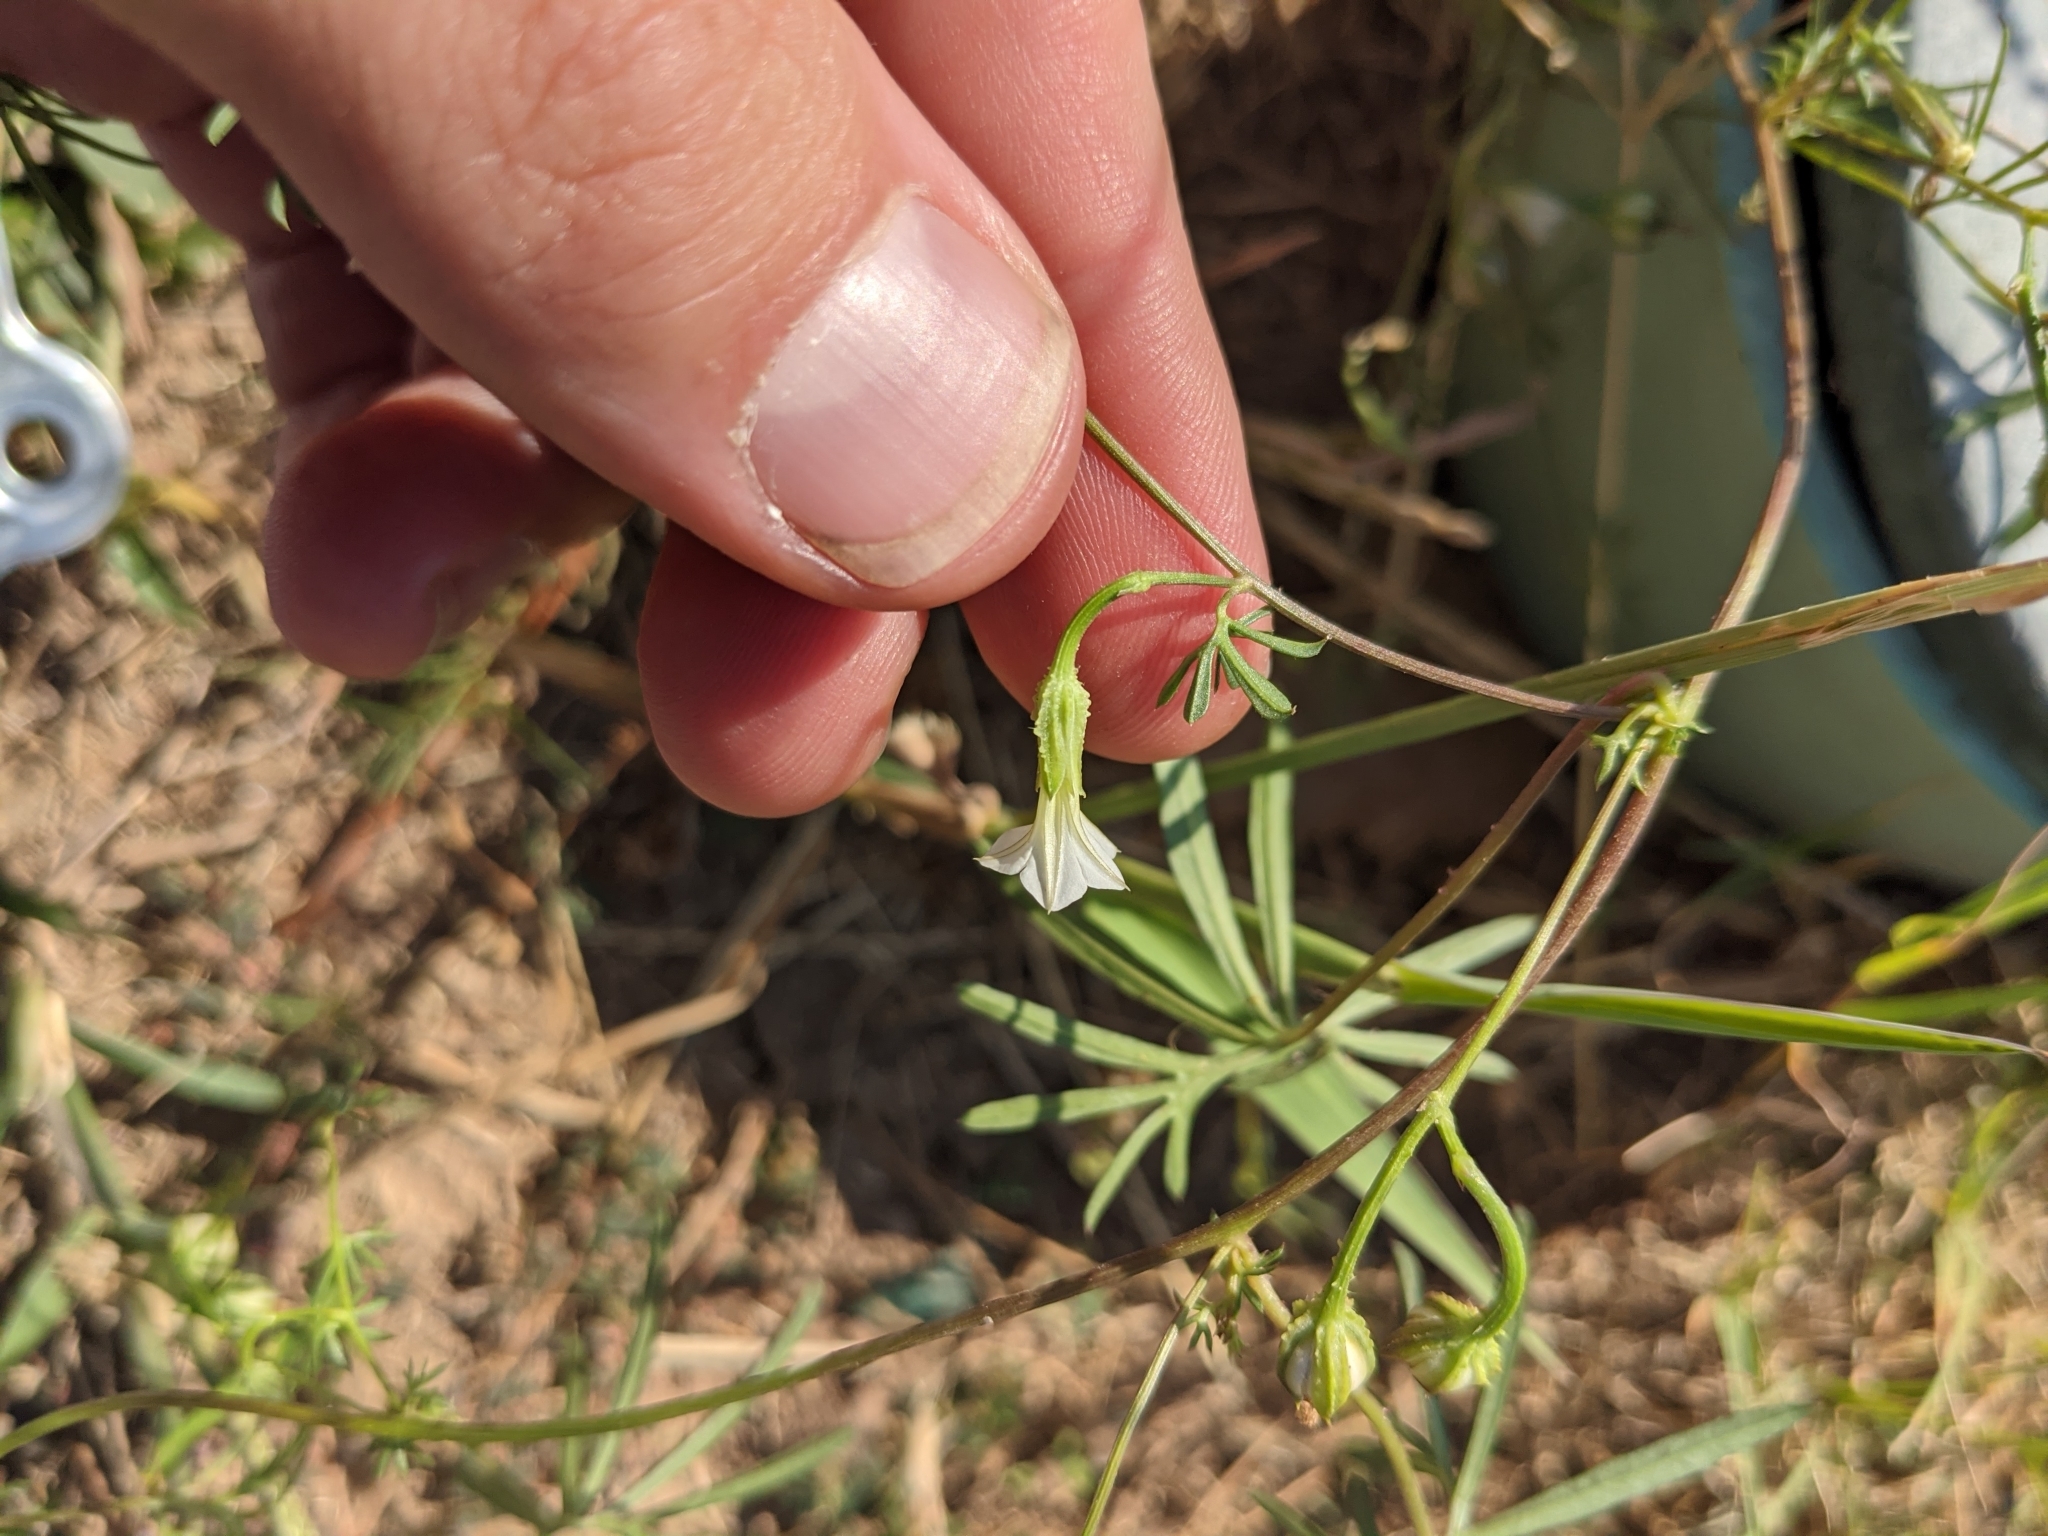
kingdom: Plantae
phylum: Tracheophyta
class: Magnoliopsida
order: Solanales
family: Convolvulaceae
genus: Ipomoea
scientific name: Ipomoea edwardsensis
